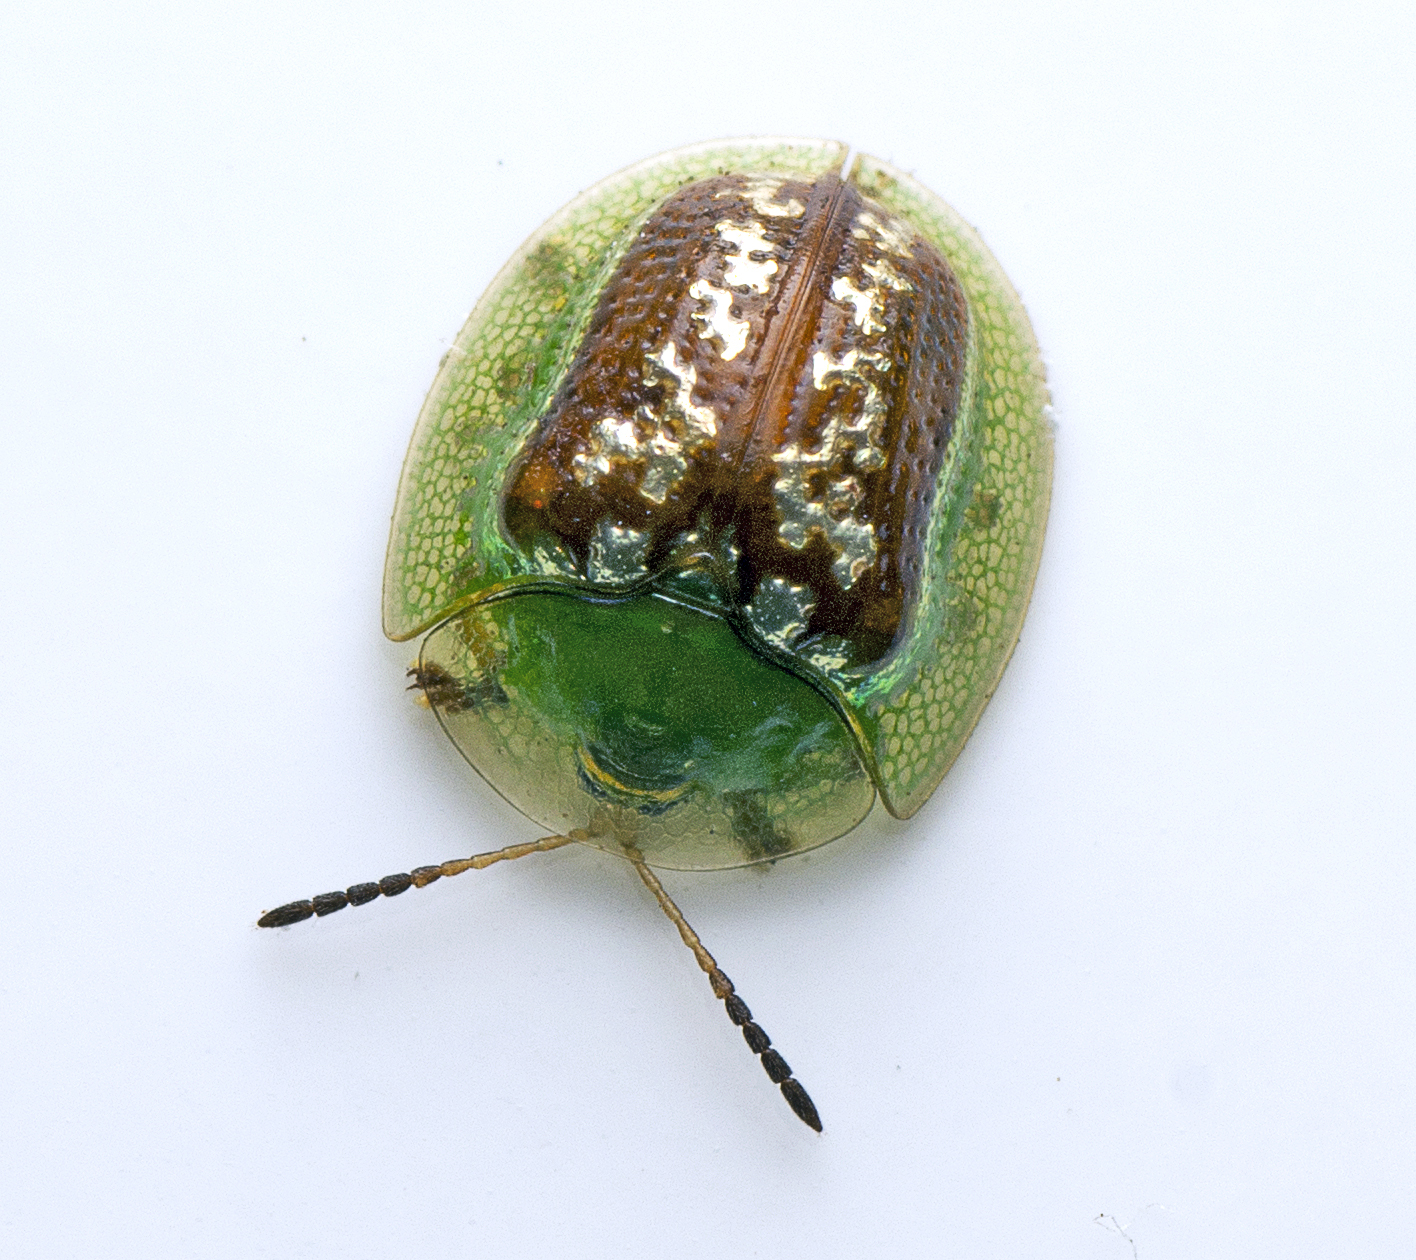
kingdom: Animalia
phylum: Arthropoda
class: Insecta
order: Coleoptera
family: Chrysomelidae
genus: Cassida
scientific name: Cassida compuncta
